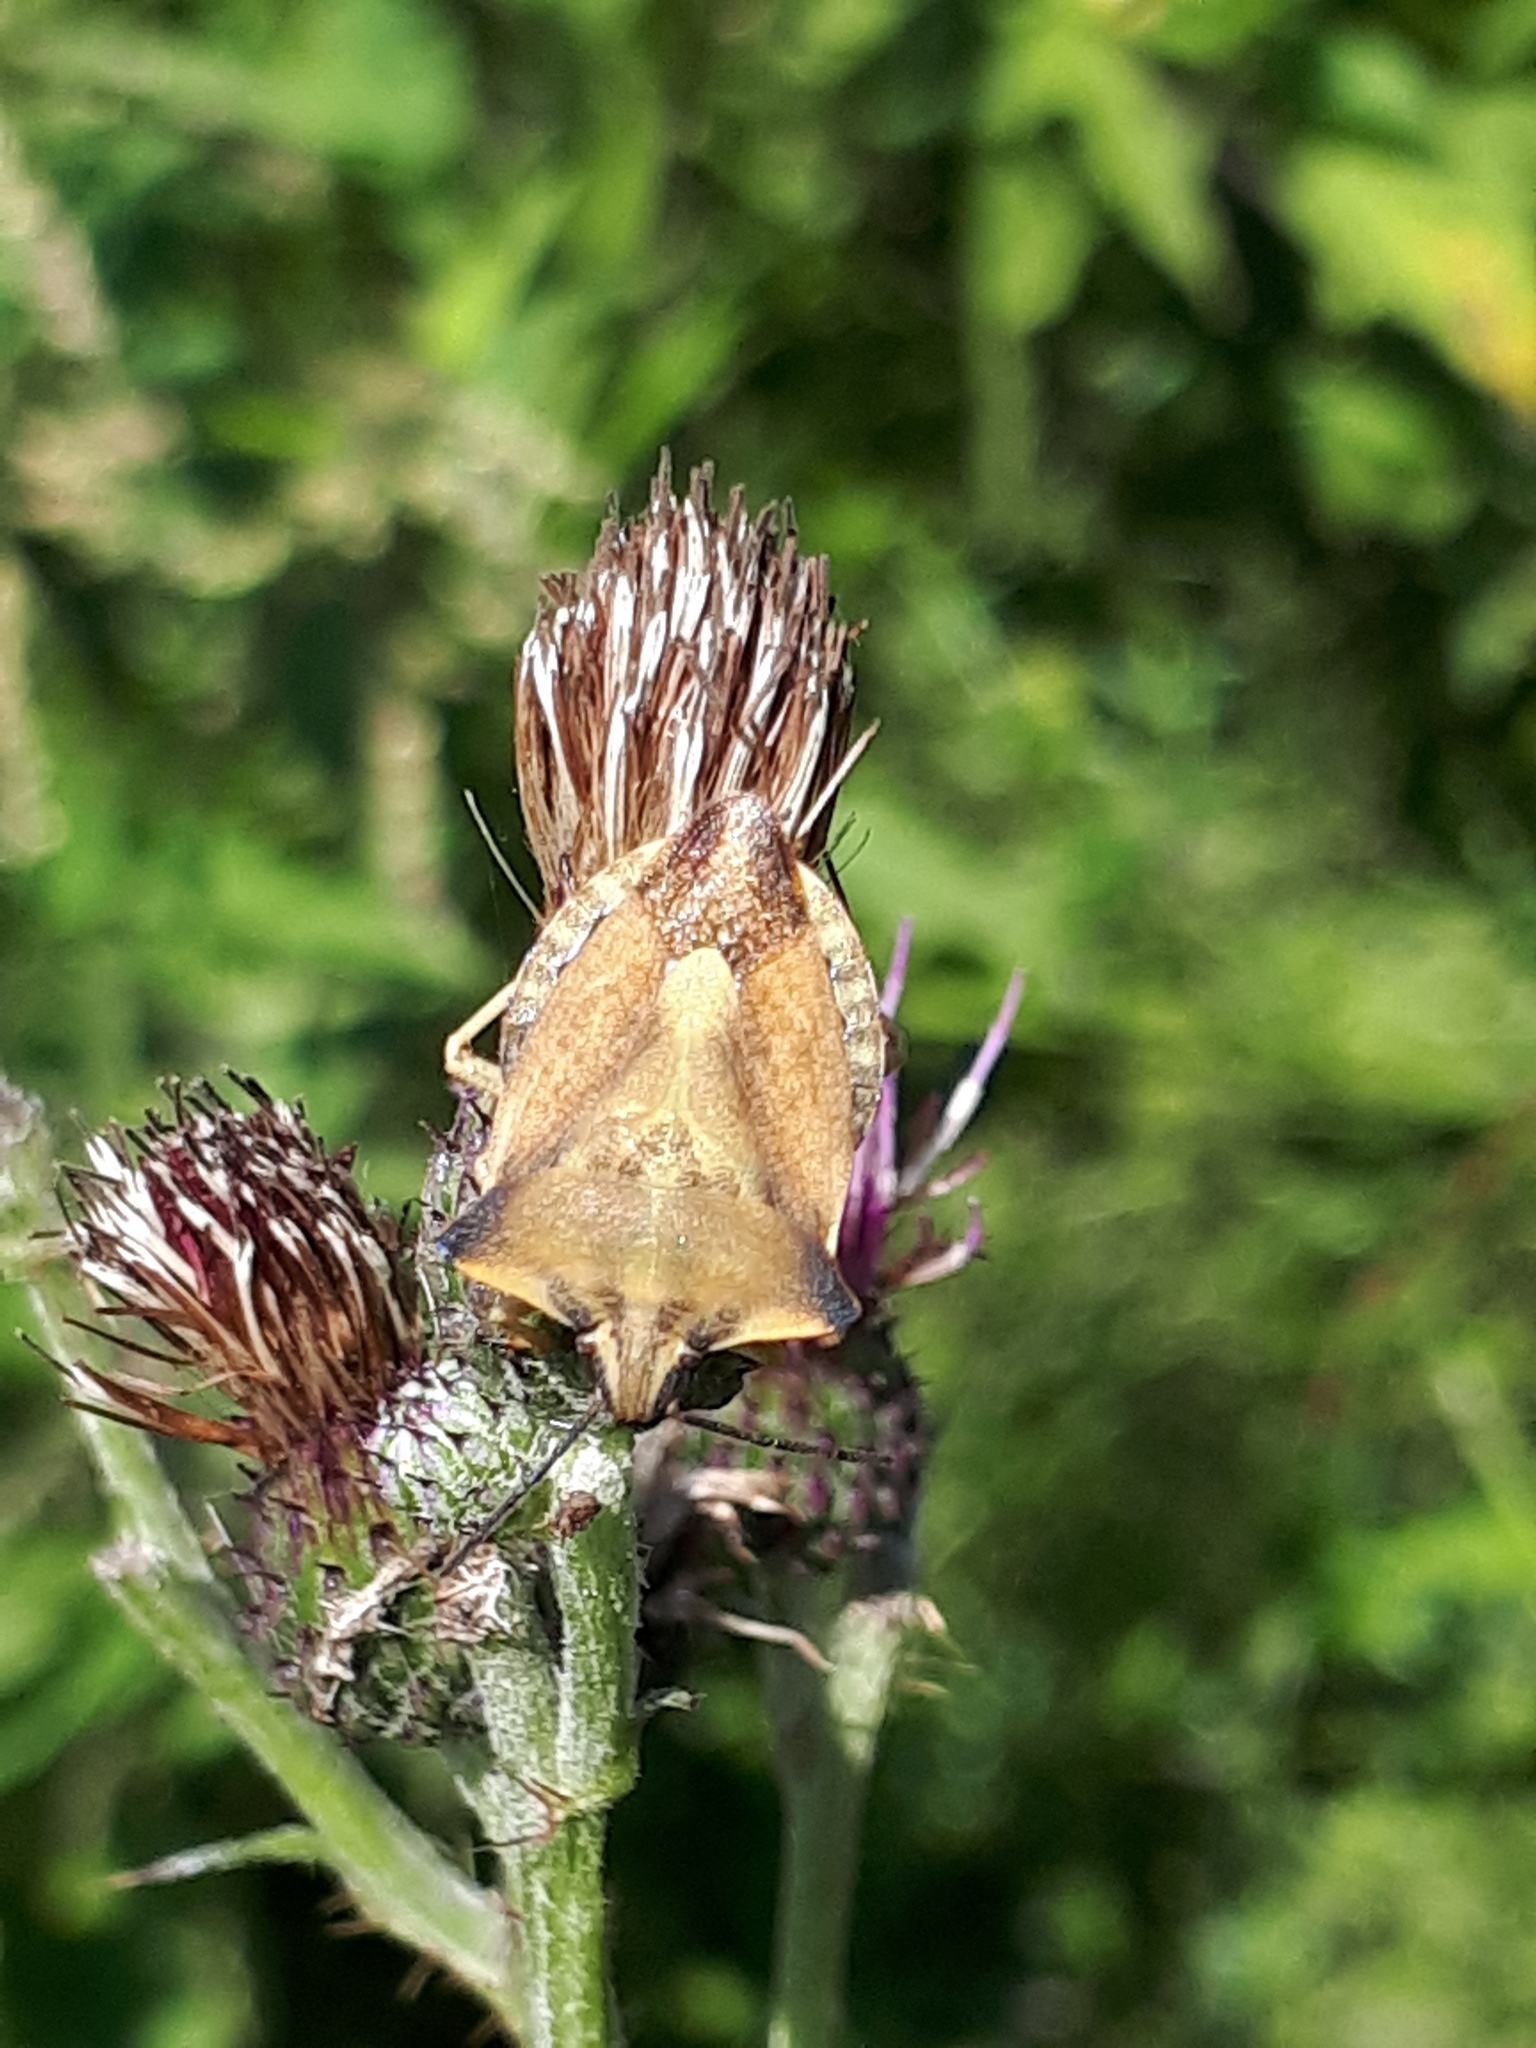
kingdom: Animalia
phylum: Arthropoda
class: Insecta
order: Hemiptera
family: Pentatomidae
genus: Carpocoris
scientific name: Carpocoris fuscispinus
